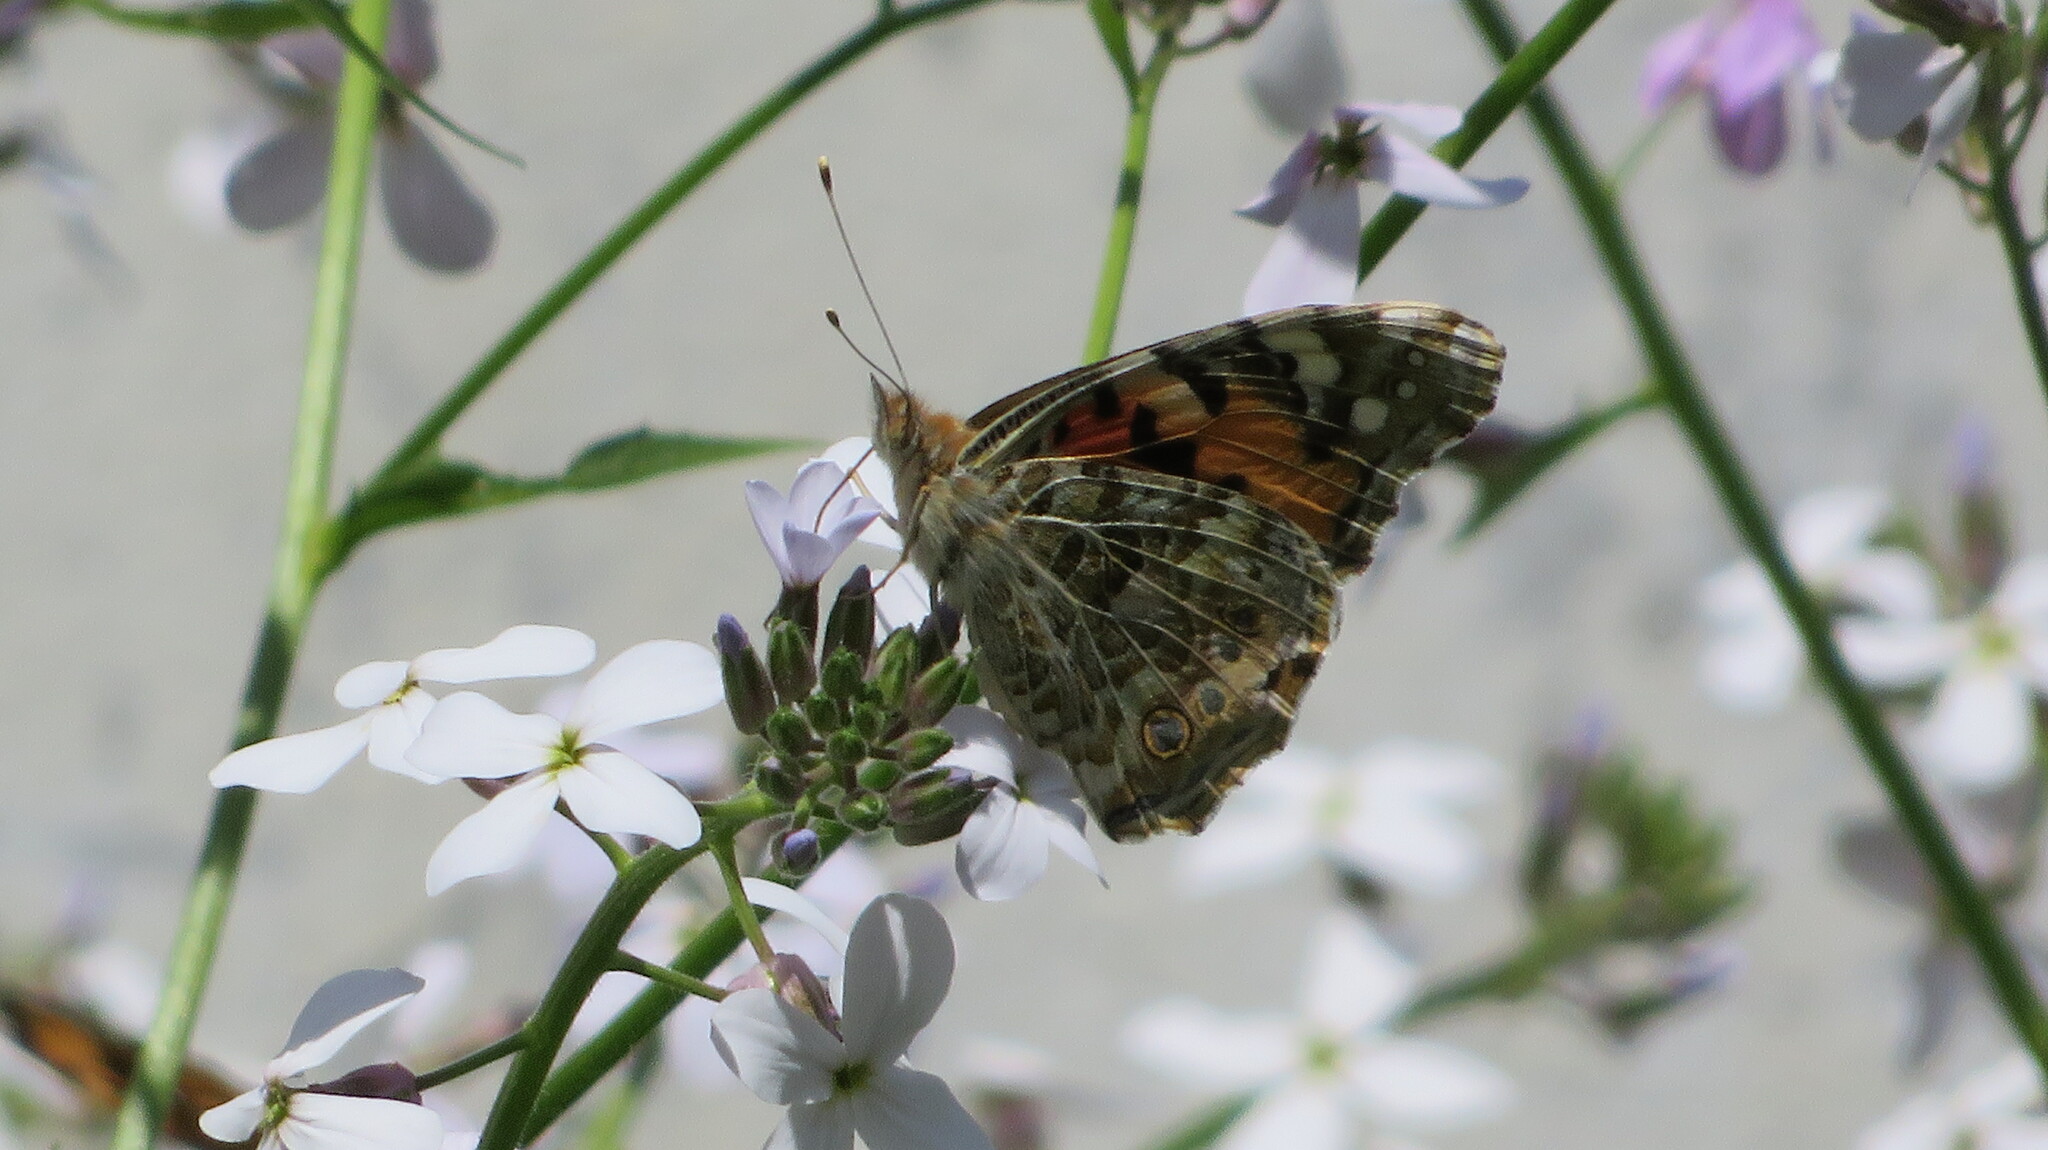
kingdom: Animalia
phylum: Arthropoda
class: Insecta
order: Lepidoptera
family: Nymphalidae
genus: Vanessa
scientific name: Vanessa cardui
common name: Painted lady
